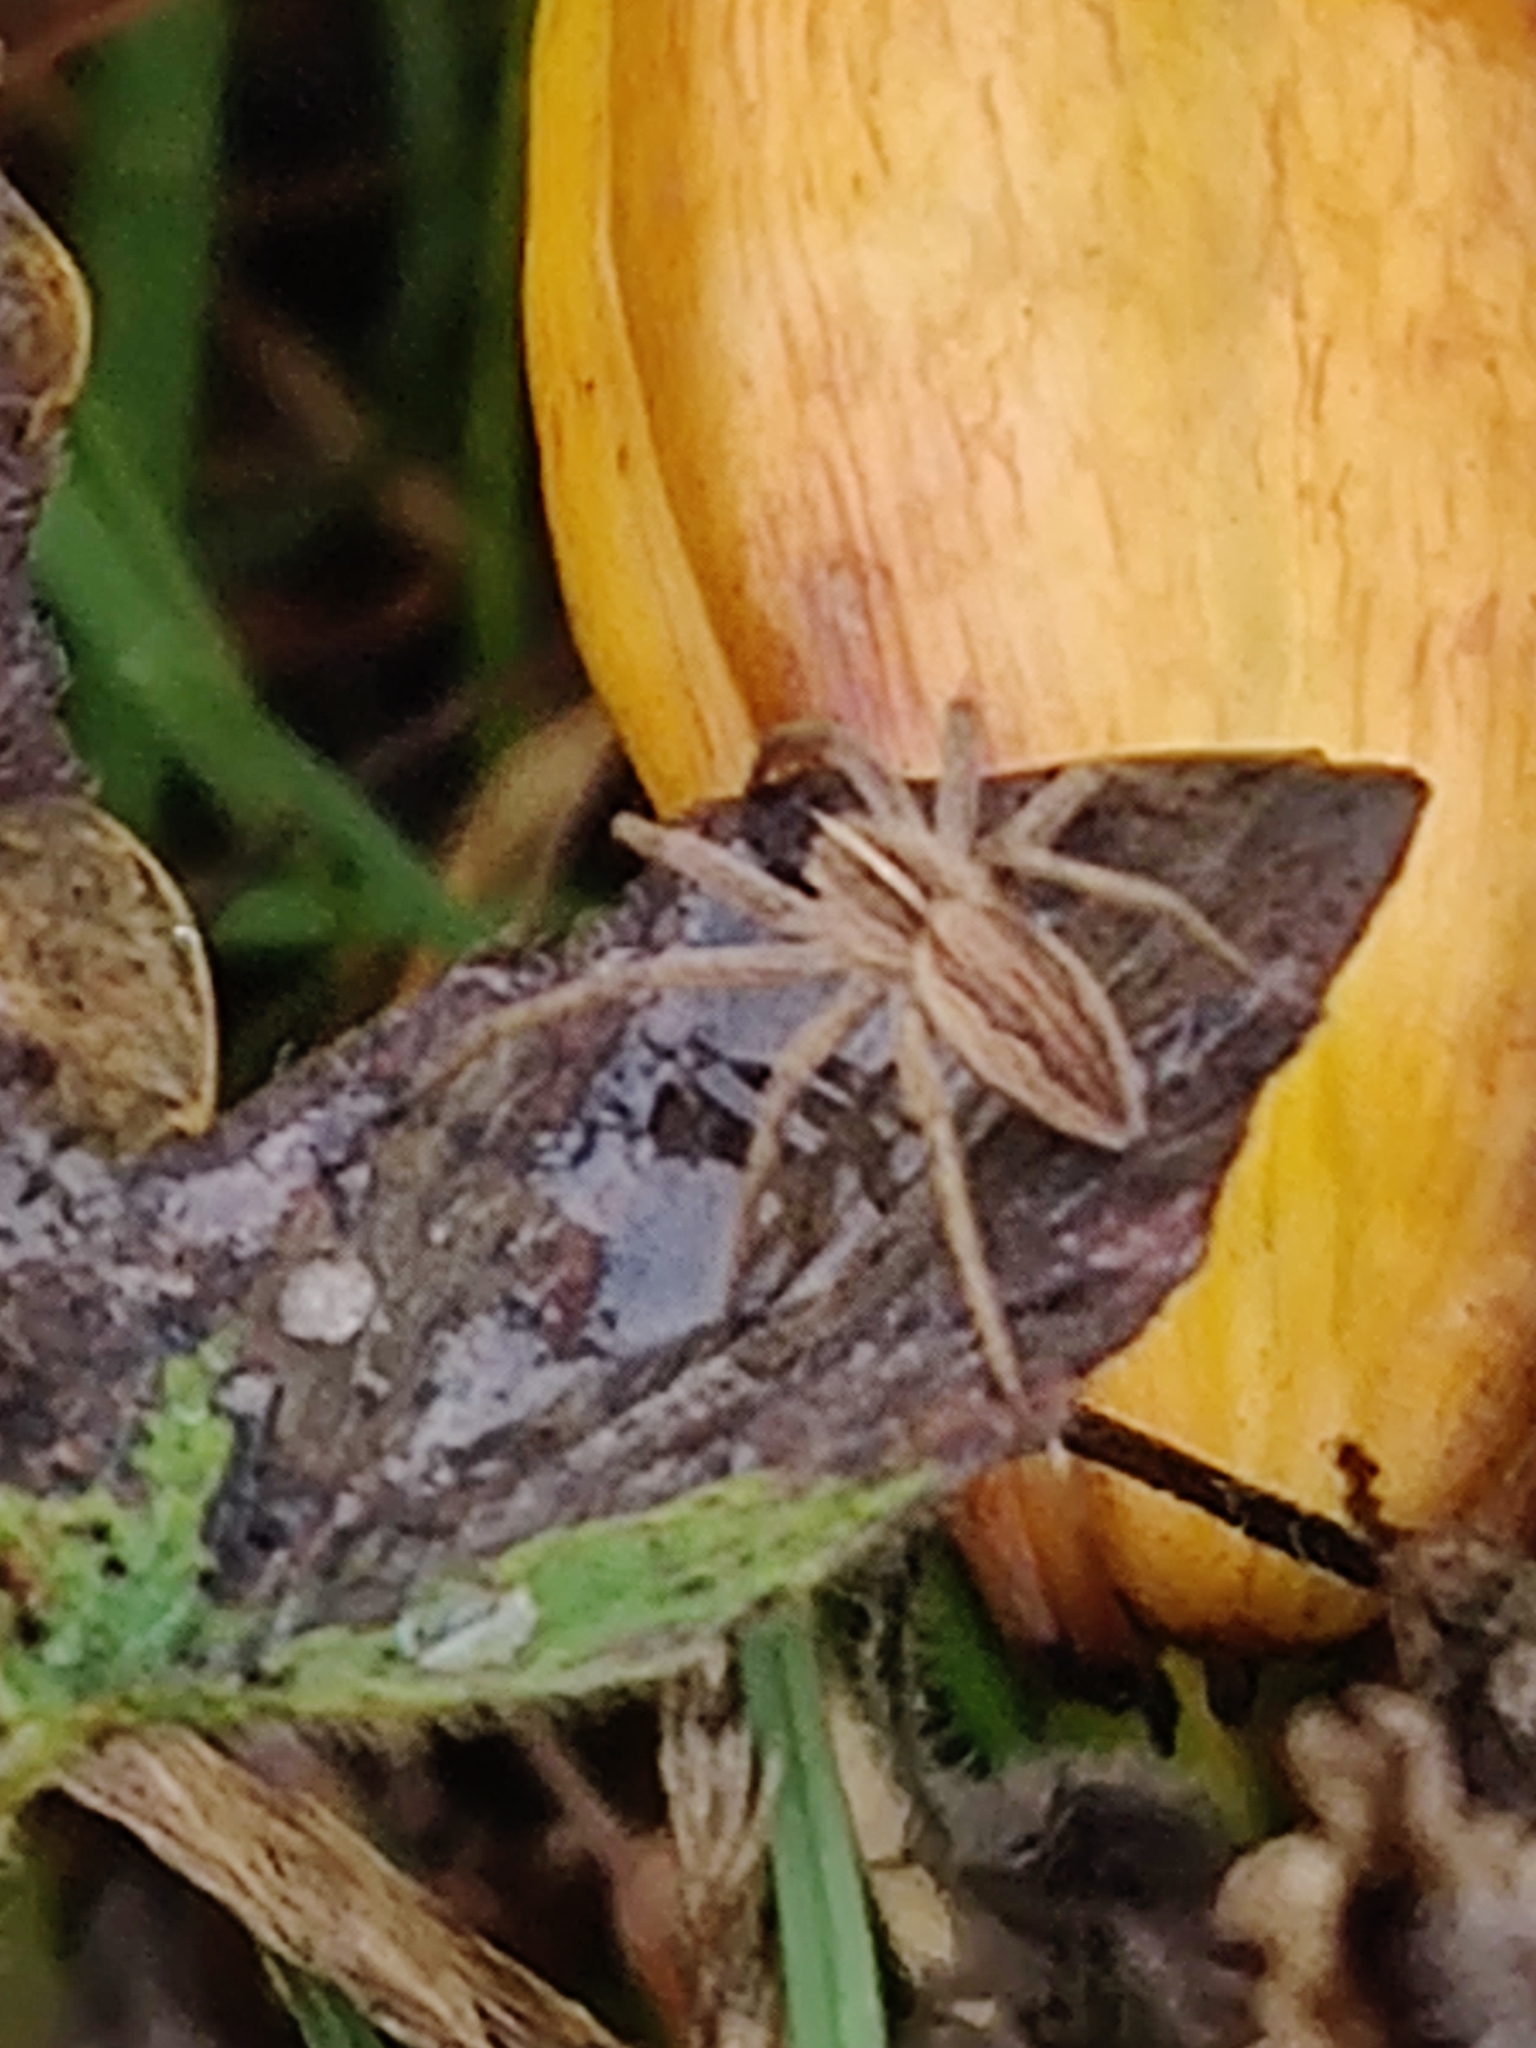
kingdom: Animalia
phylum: Arthropoda
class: Arachnida
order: Araneae
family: Pisauridae
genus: Pisaura
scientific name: Pisaura mirabilis
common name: Tent spider
